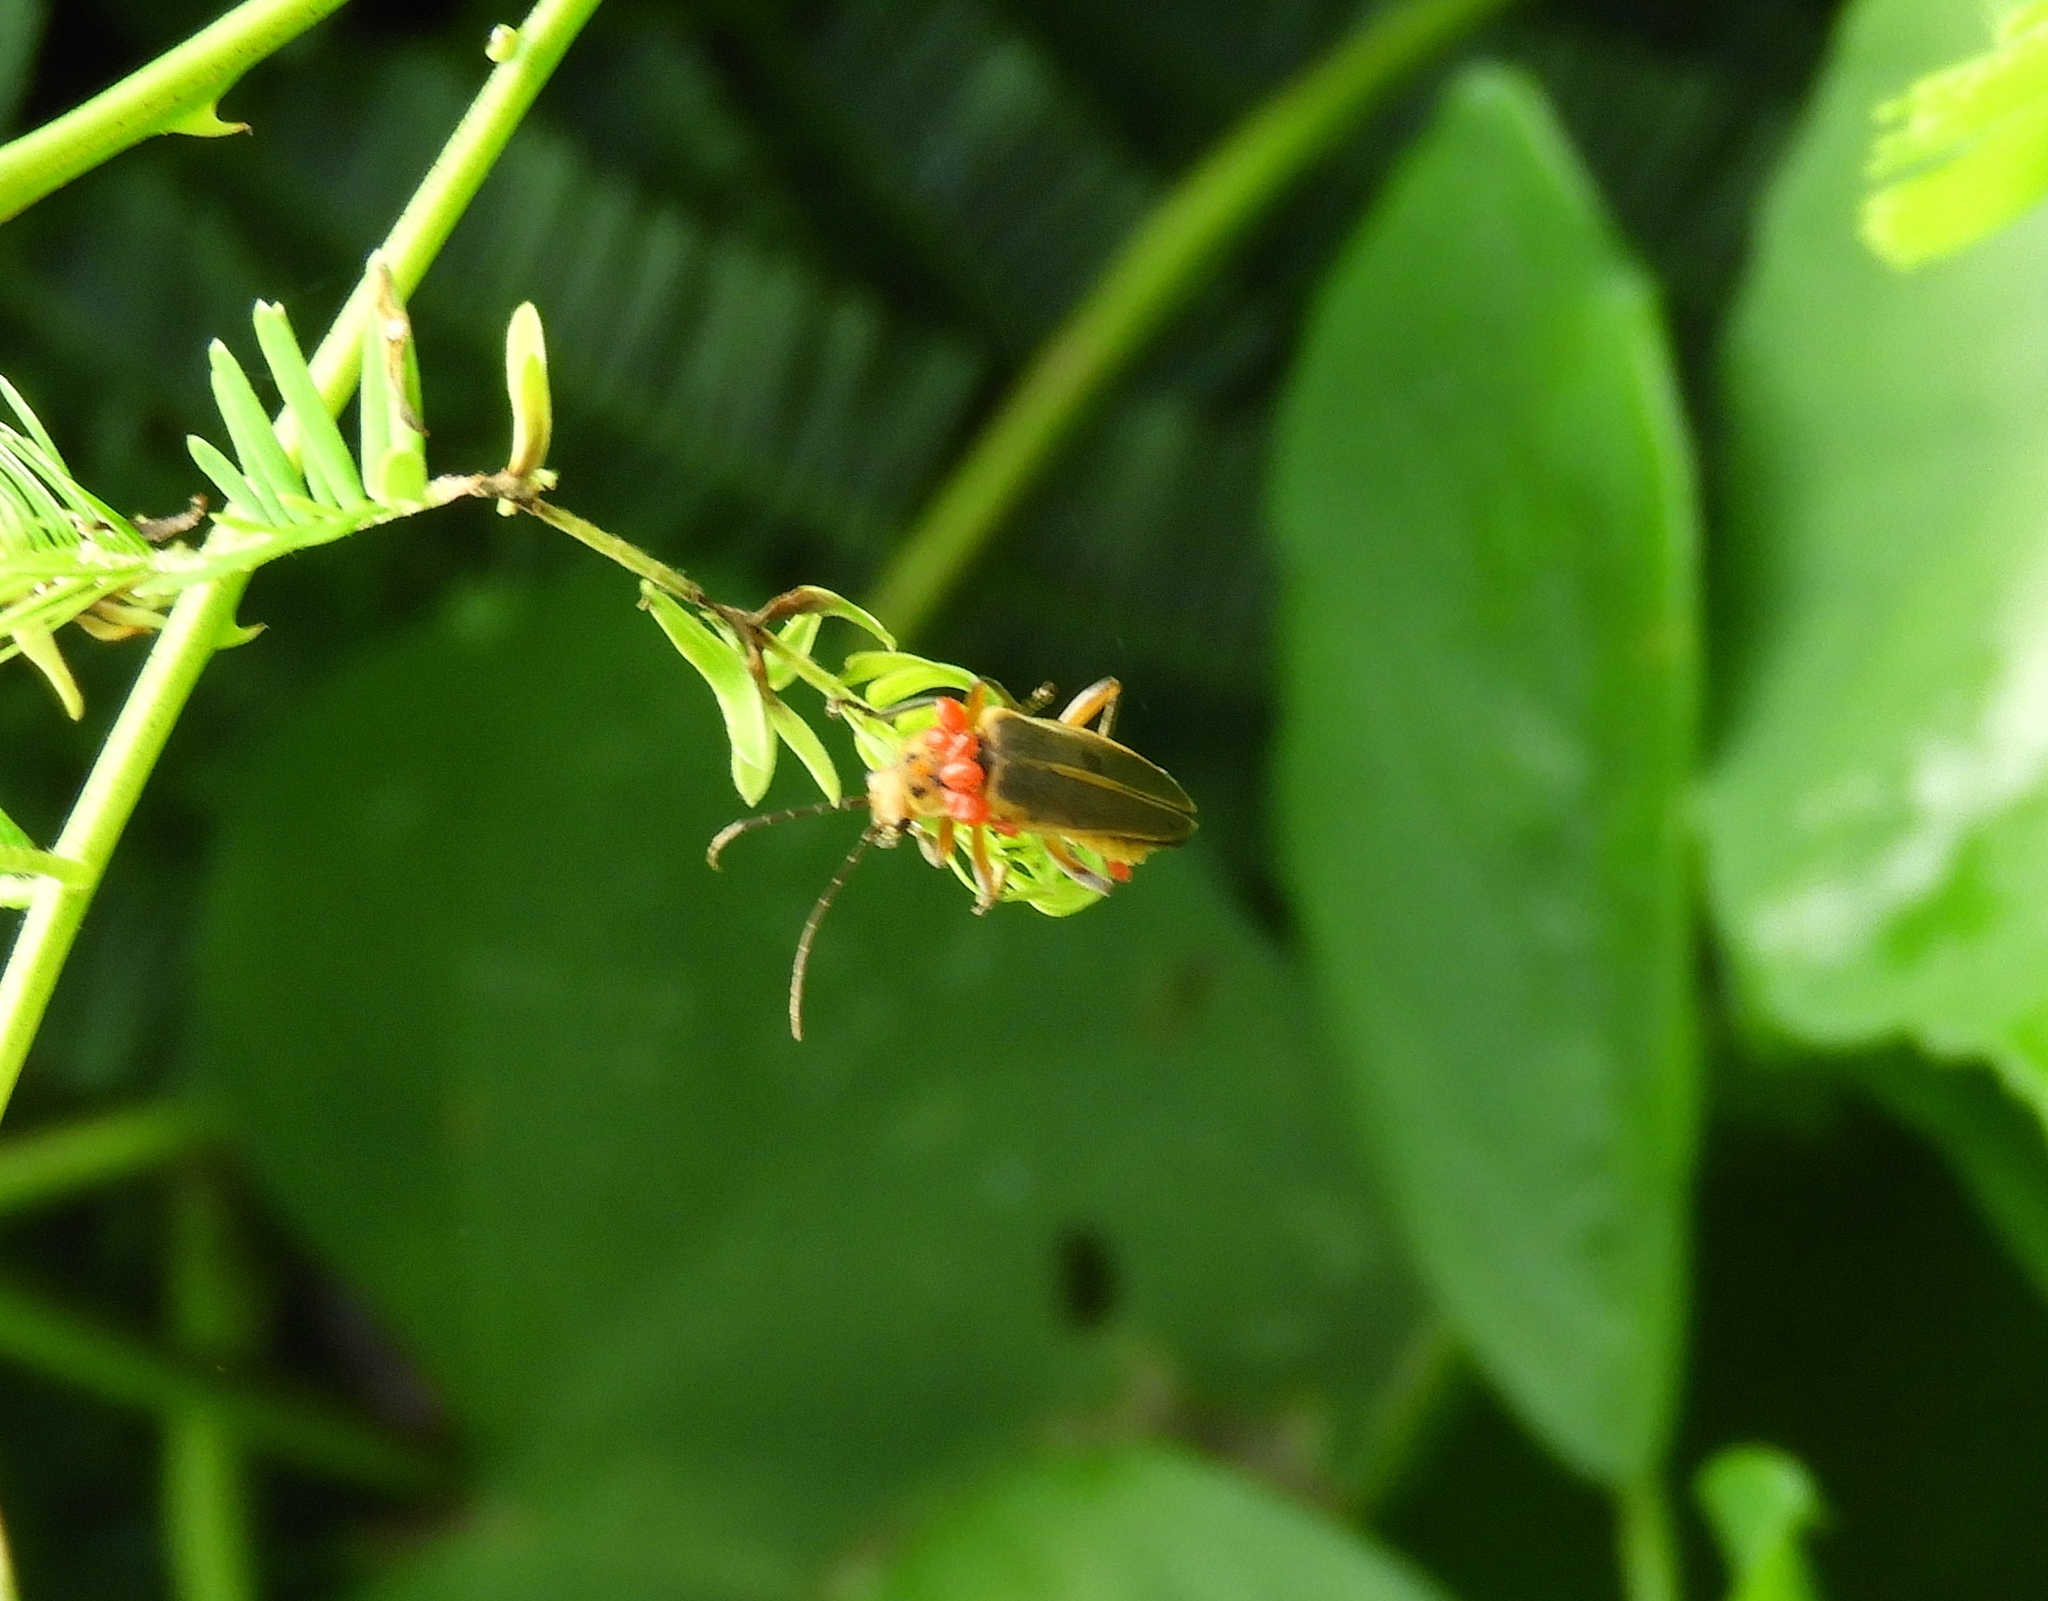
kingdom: Animalia
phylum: Arthropoda
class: Insecta
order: Coleoptera
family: Cantharidae
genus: Chauliognathus
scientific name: Chauliognathus
